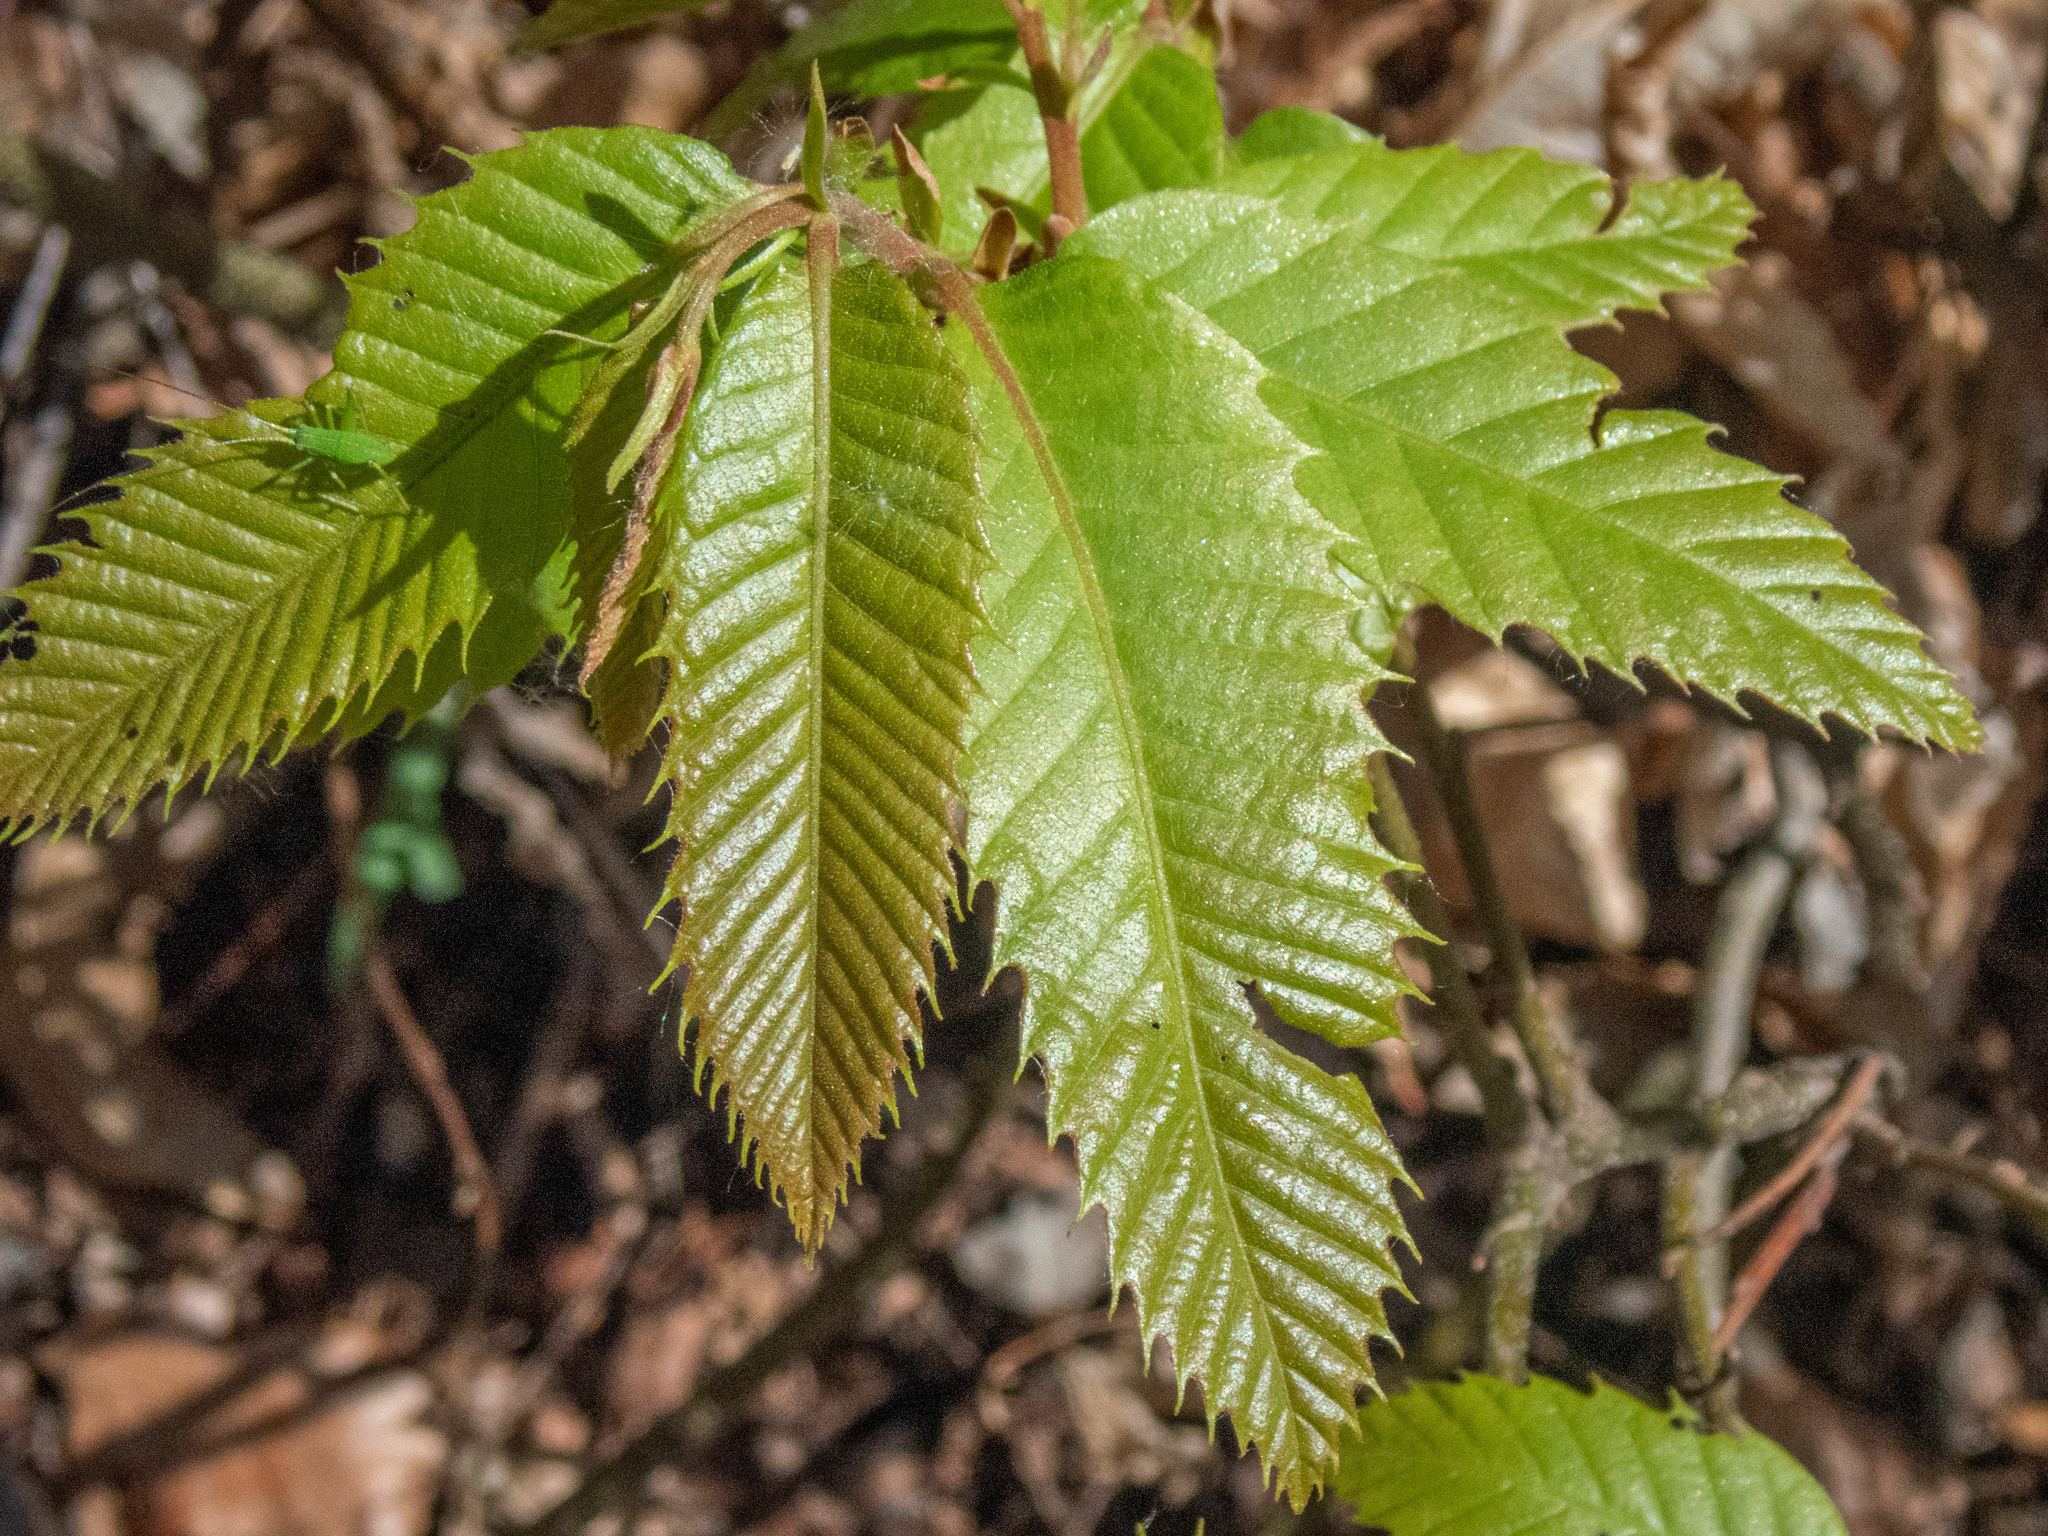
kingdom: Plantae
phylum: Tracheophyta
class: Magnoliopsida
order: Fagales
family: Fagaceae
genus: Castanea
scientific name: Castanea sativa
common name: Sweet chestnut
